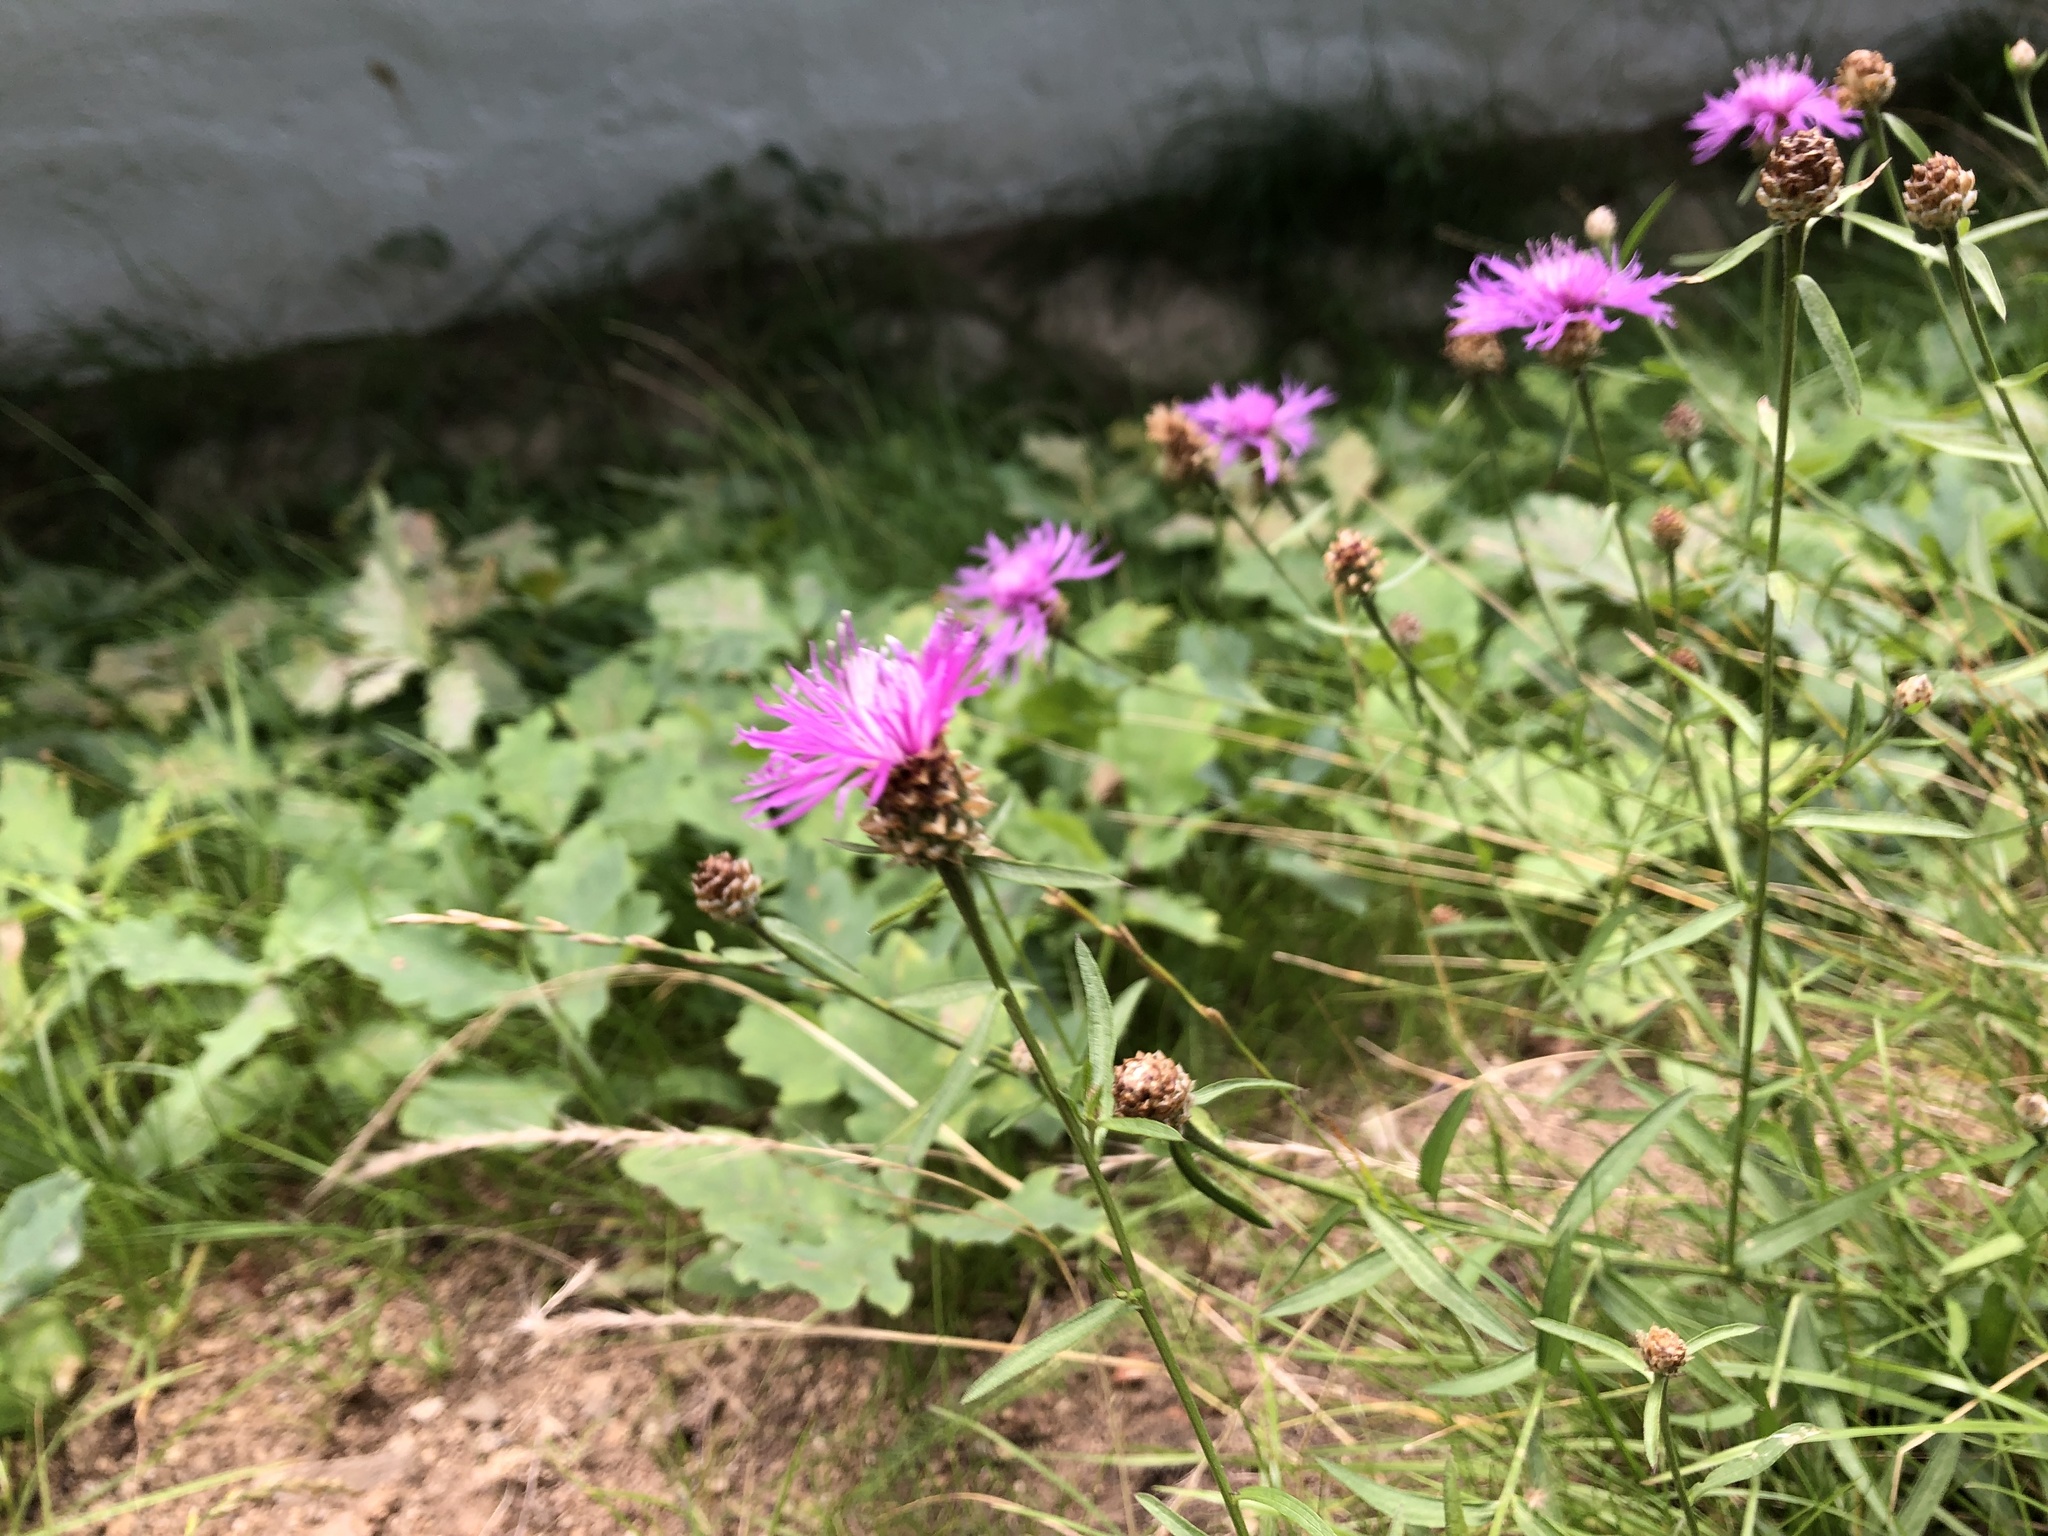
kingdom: Plantae
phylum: Tracheophyta
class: Magnoliopsida
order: Asterales
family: Asteraceae
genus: Centaurea
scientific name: Centaurea jacea
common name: Brown knapweed
